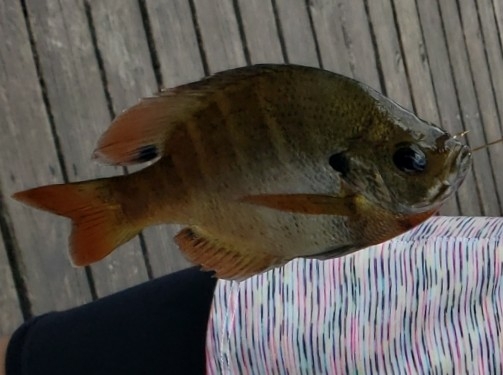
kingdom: Animalia
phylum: Chordata
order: Perciformes
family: Centrarchidae
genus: Lepomis
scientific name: Lepomis macrochirus
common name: Bluegill
